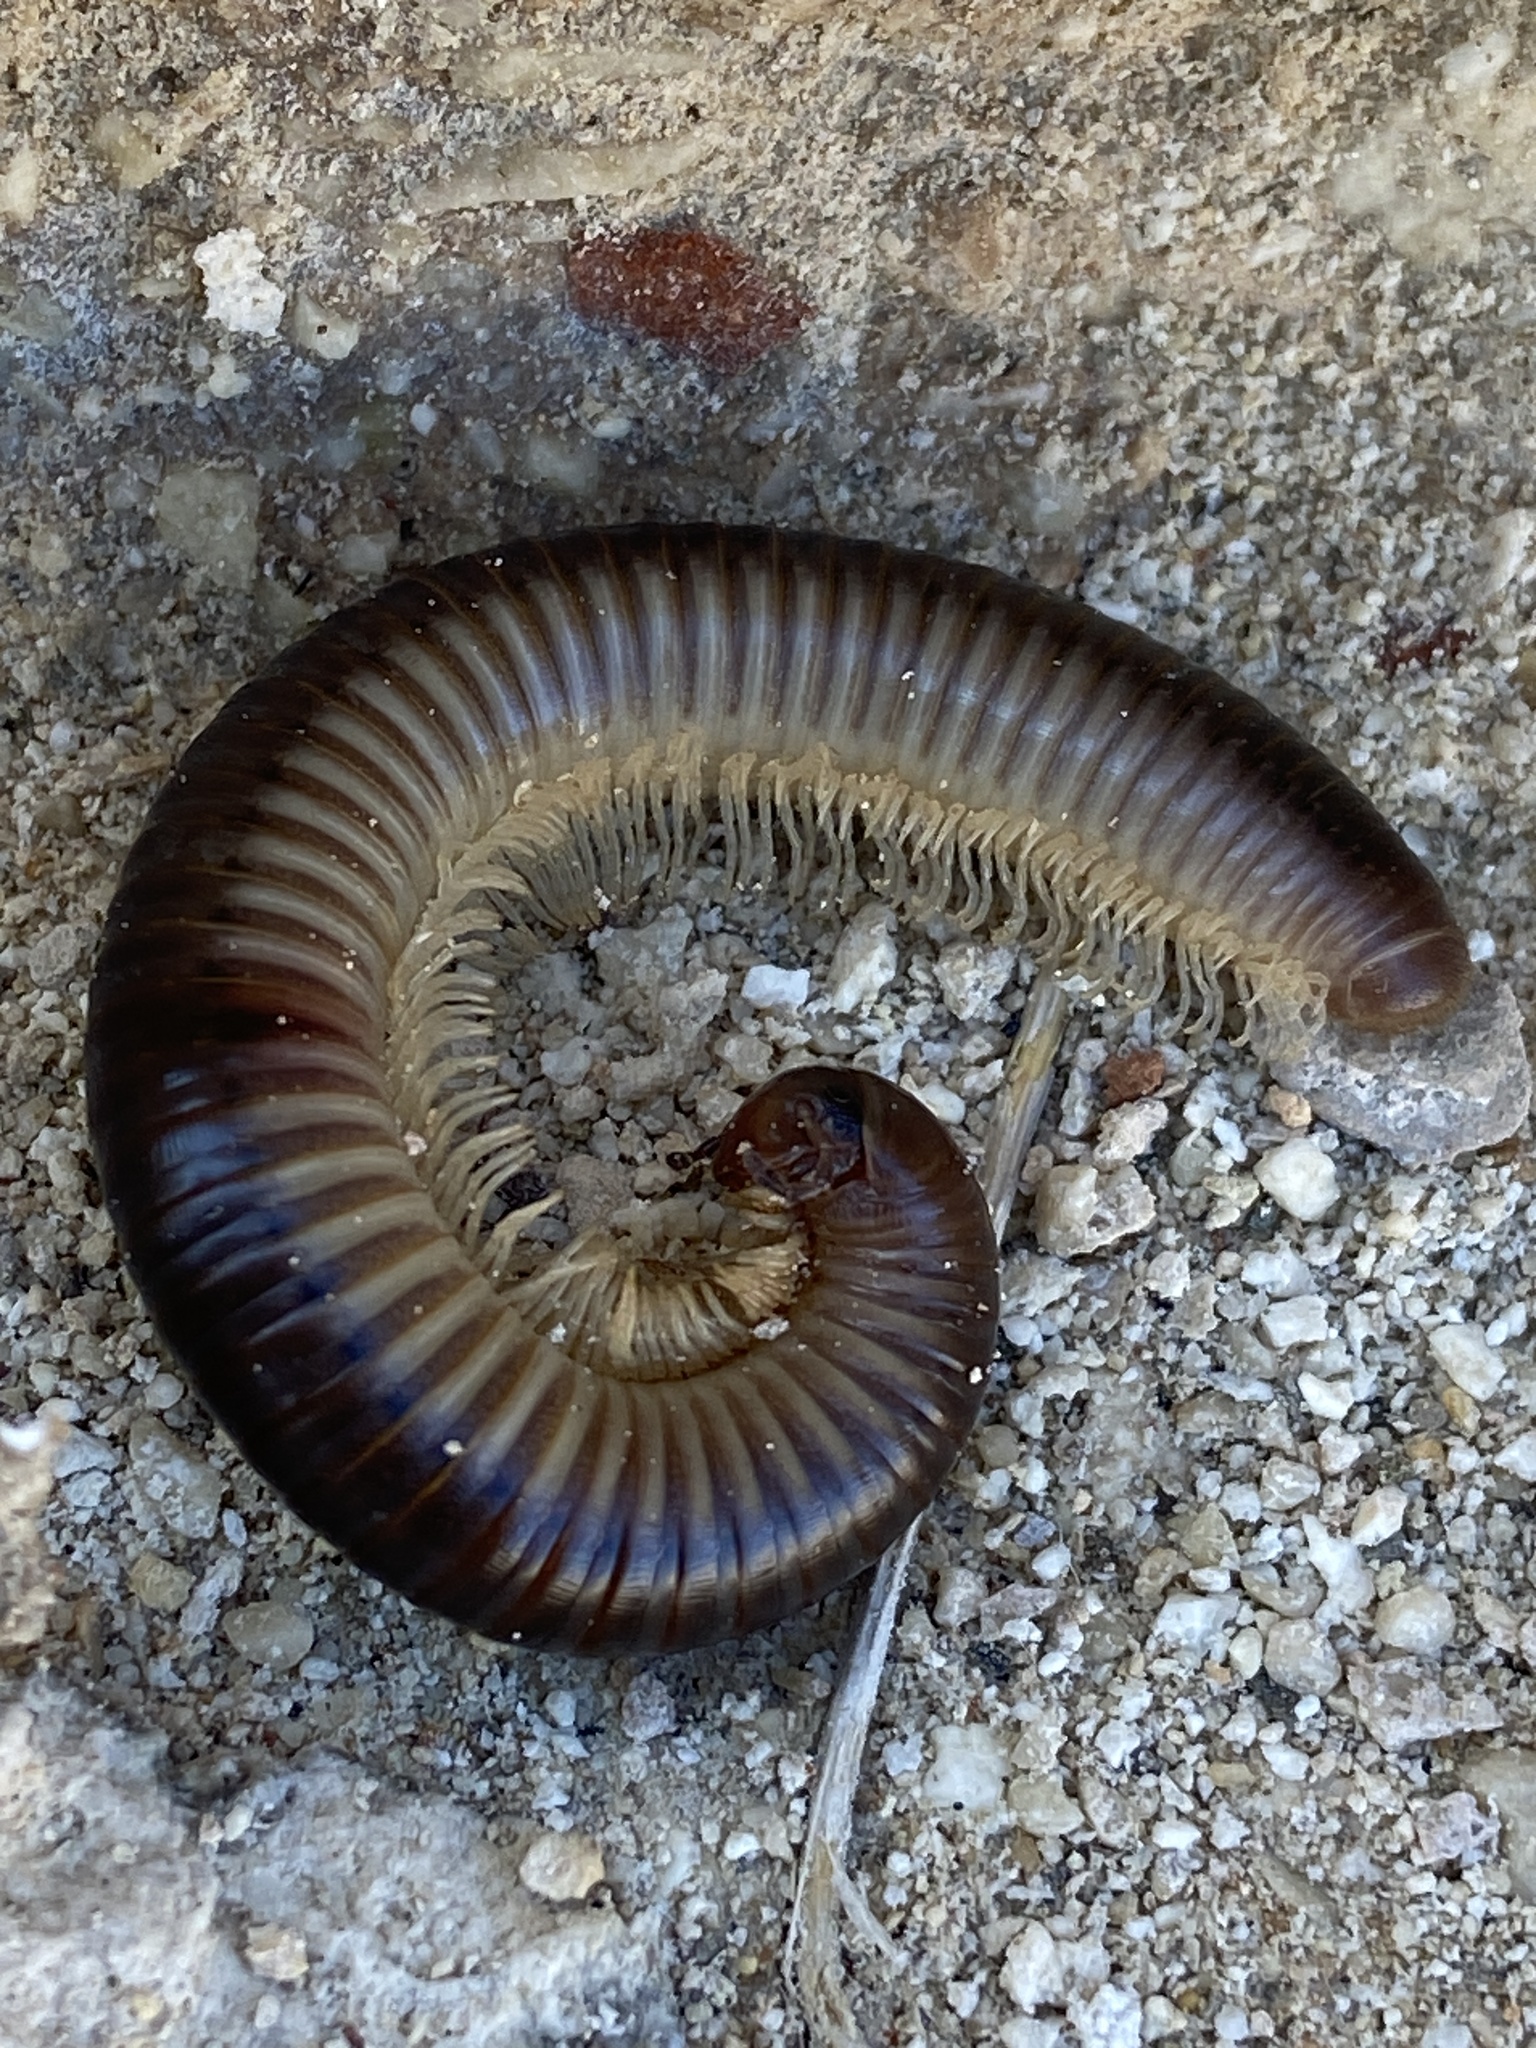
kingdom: Animalia
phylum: Arthropoda
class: Diplopoda
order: Julida
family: Julidae
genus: Pachyiulus
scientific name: Pachyiulus flavipes
